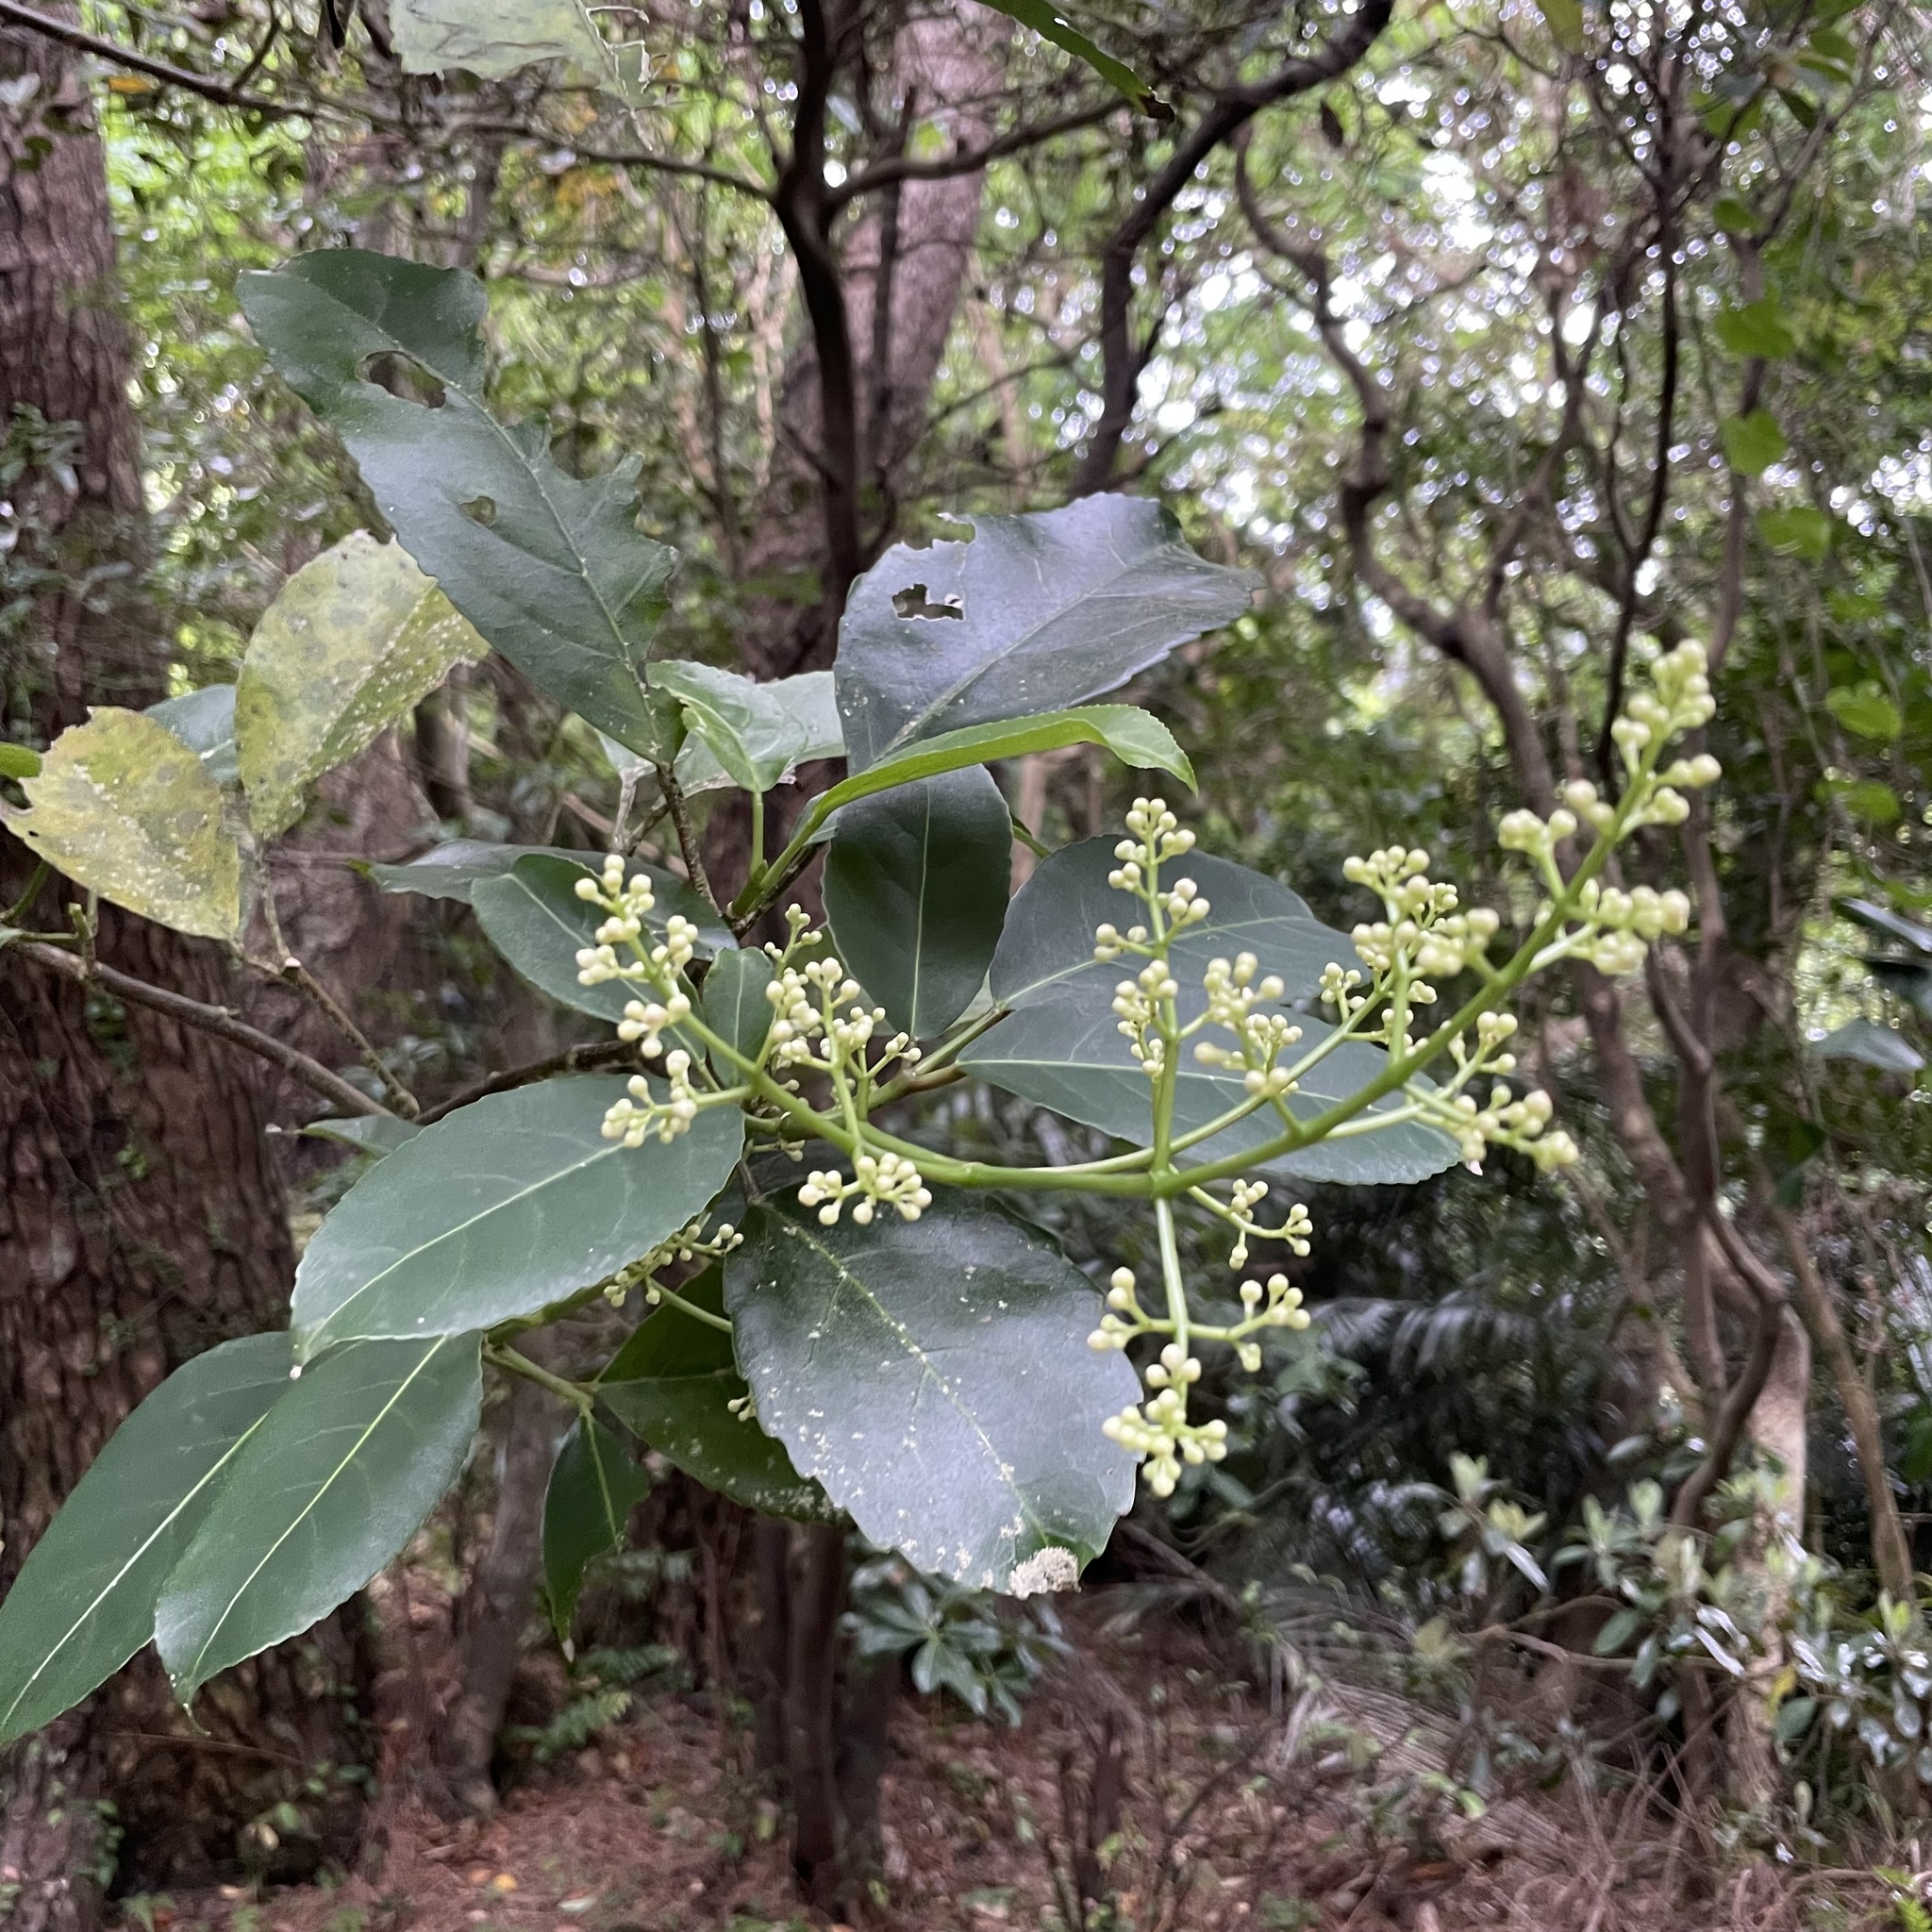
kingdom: Plantae
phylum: Tracheophyta
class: Magnoliopsida
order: Crossosomatales
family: Staphyleaceae
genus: Turpinia
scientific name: Turpinia ternata
